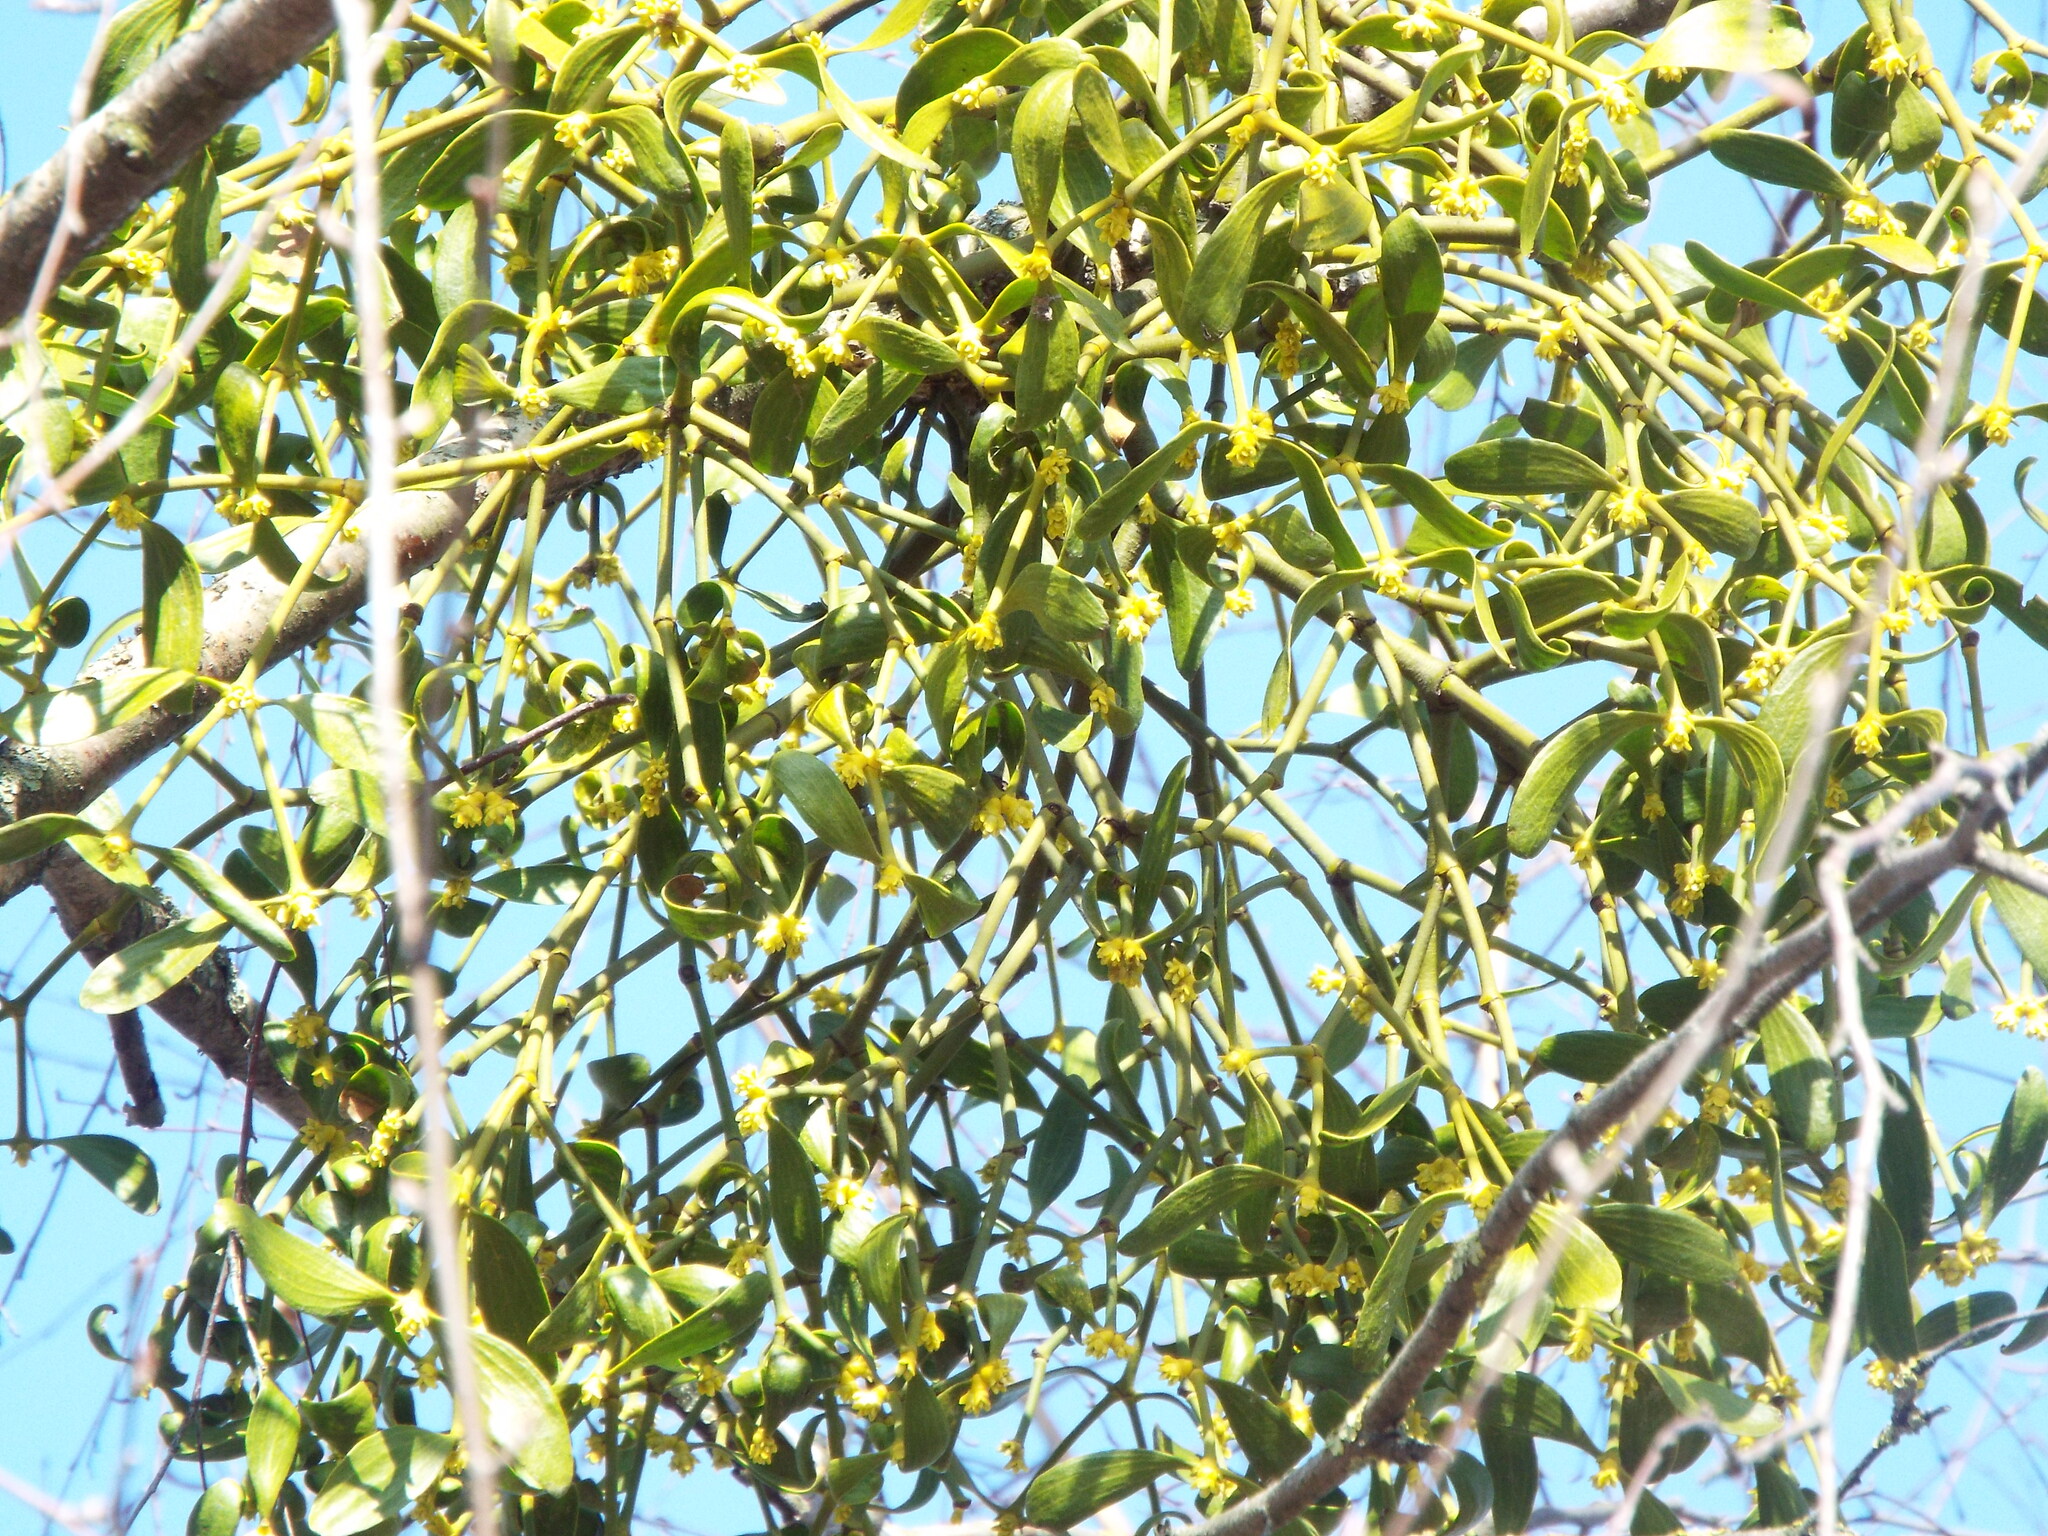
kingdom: Plantae
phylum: Tracheophyta
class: Magnoliopsida
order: Santalales
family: Viscaceae
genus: Viscum
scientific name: Viscum album
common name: Mistletoe
